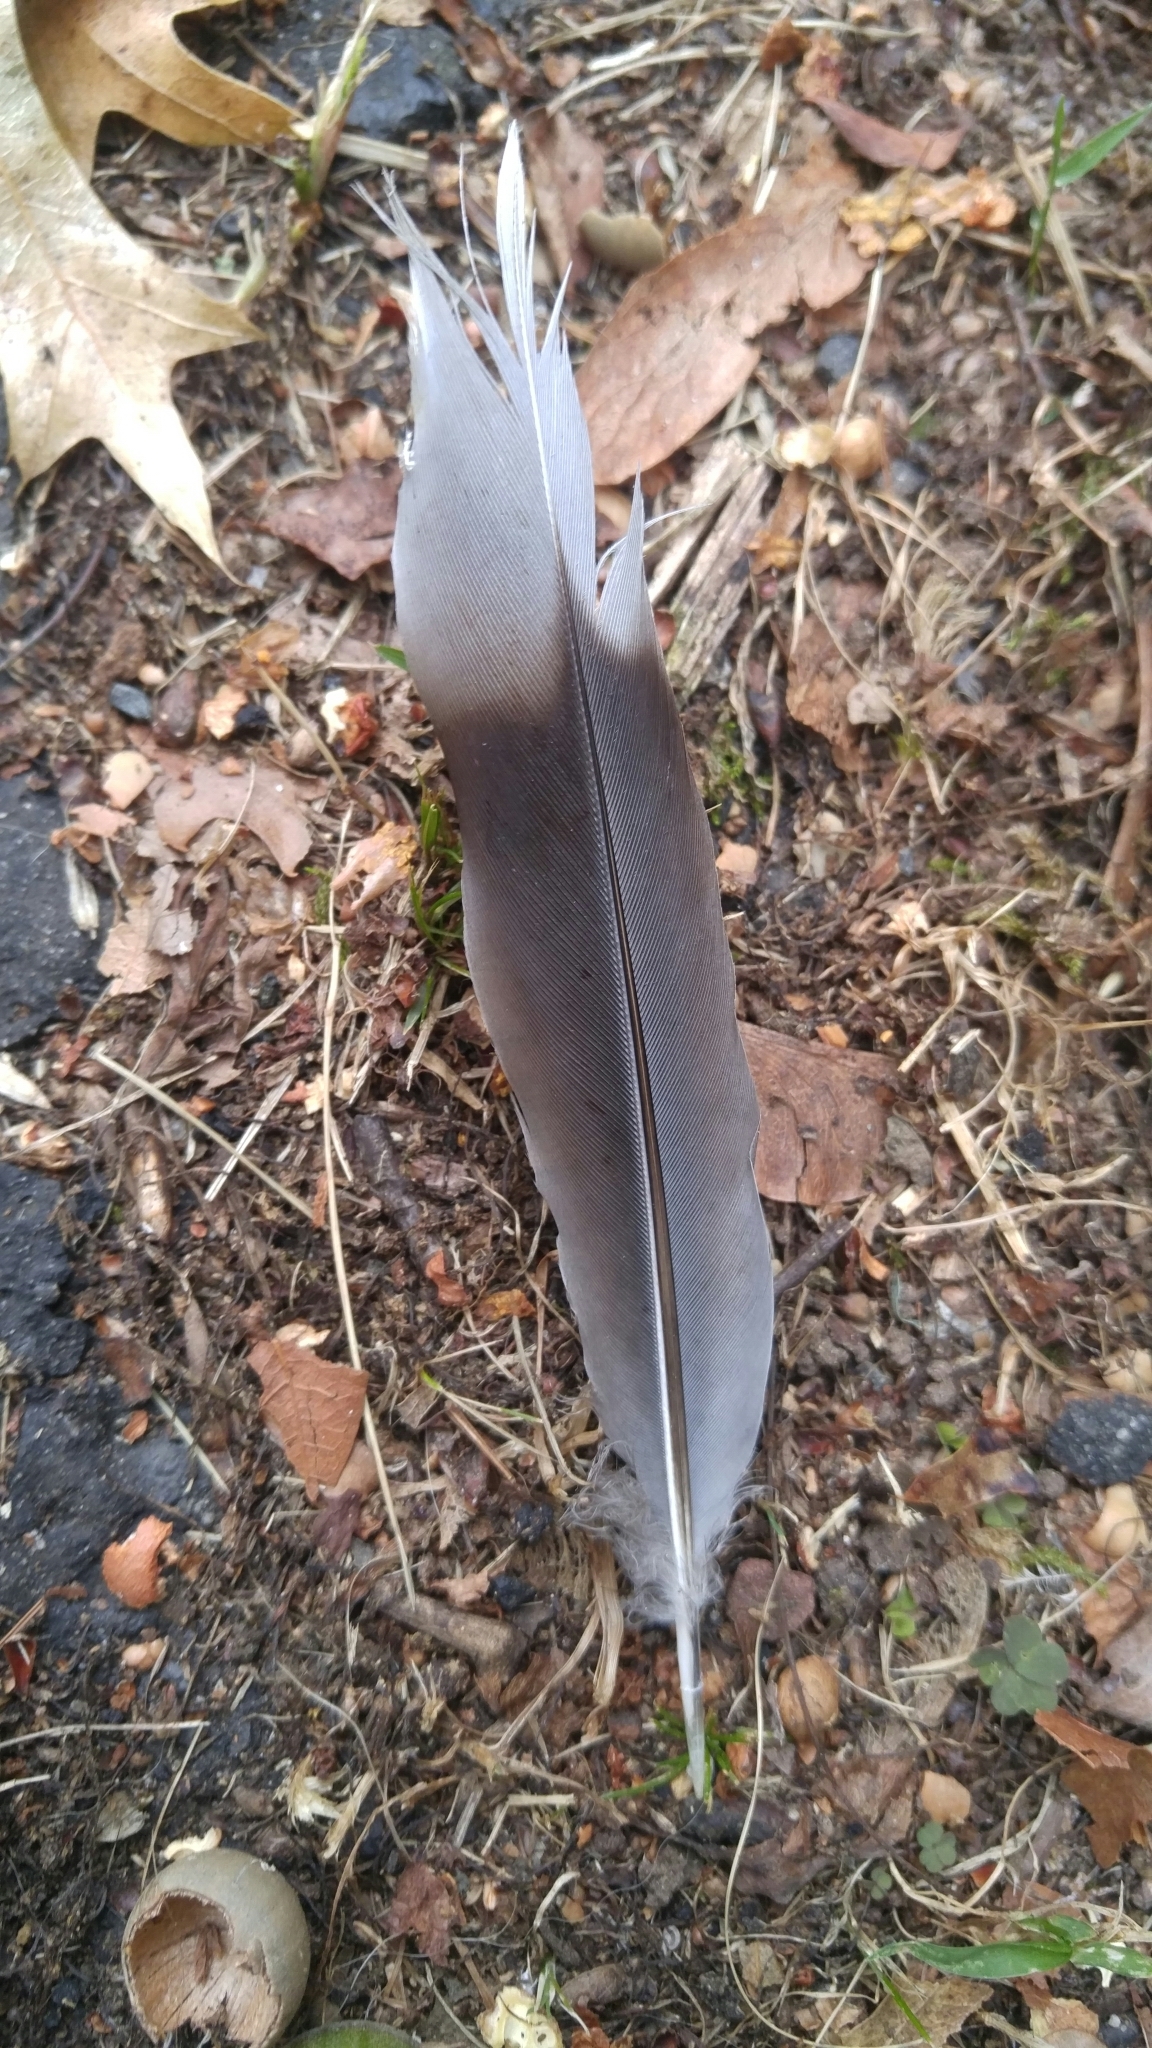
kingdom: Animalia
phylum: Chordata
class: Aves
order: Columbiformes
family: Columbidae
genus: Zenaida
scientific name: Zenaida macroura
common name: Mourning dove
